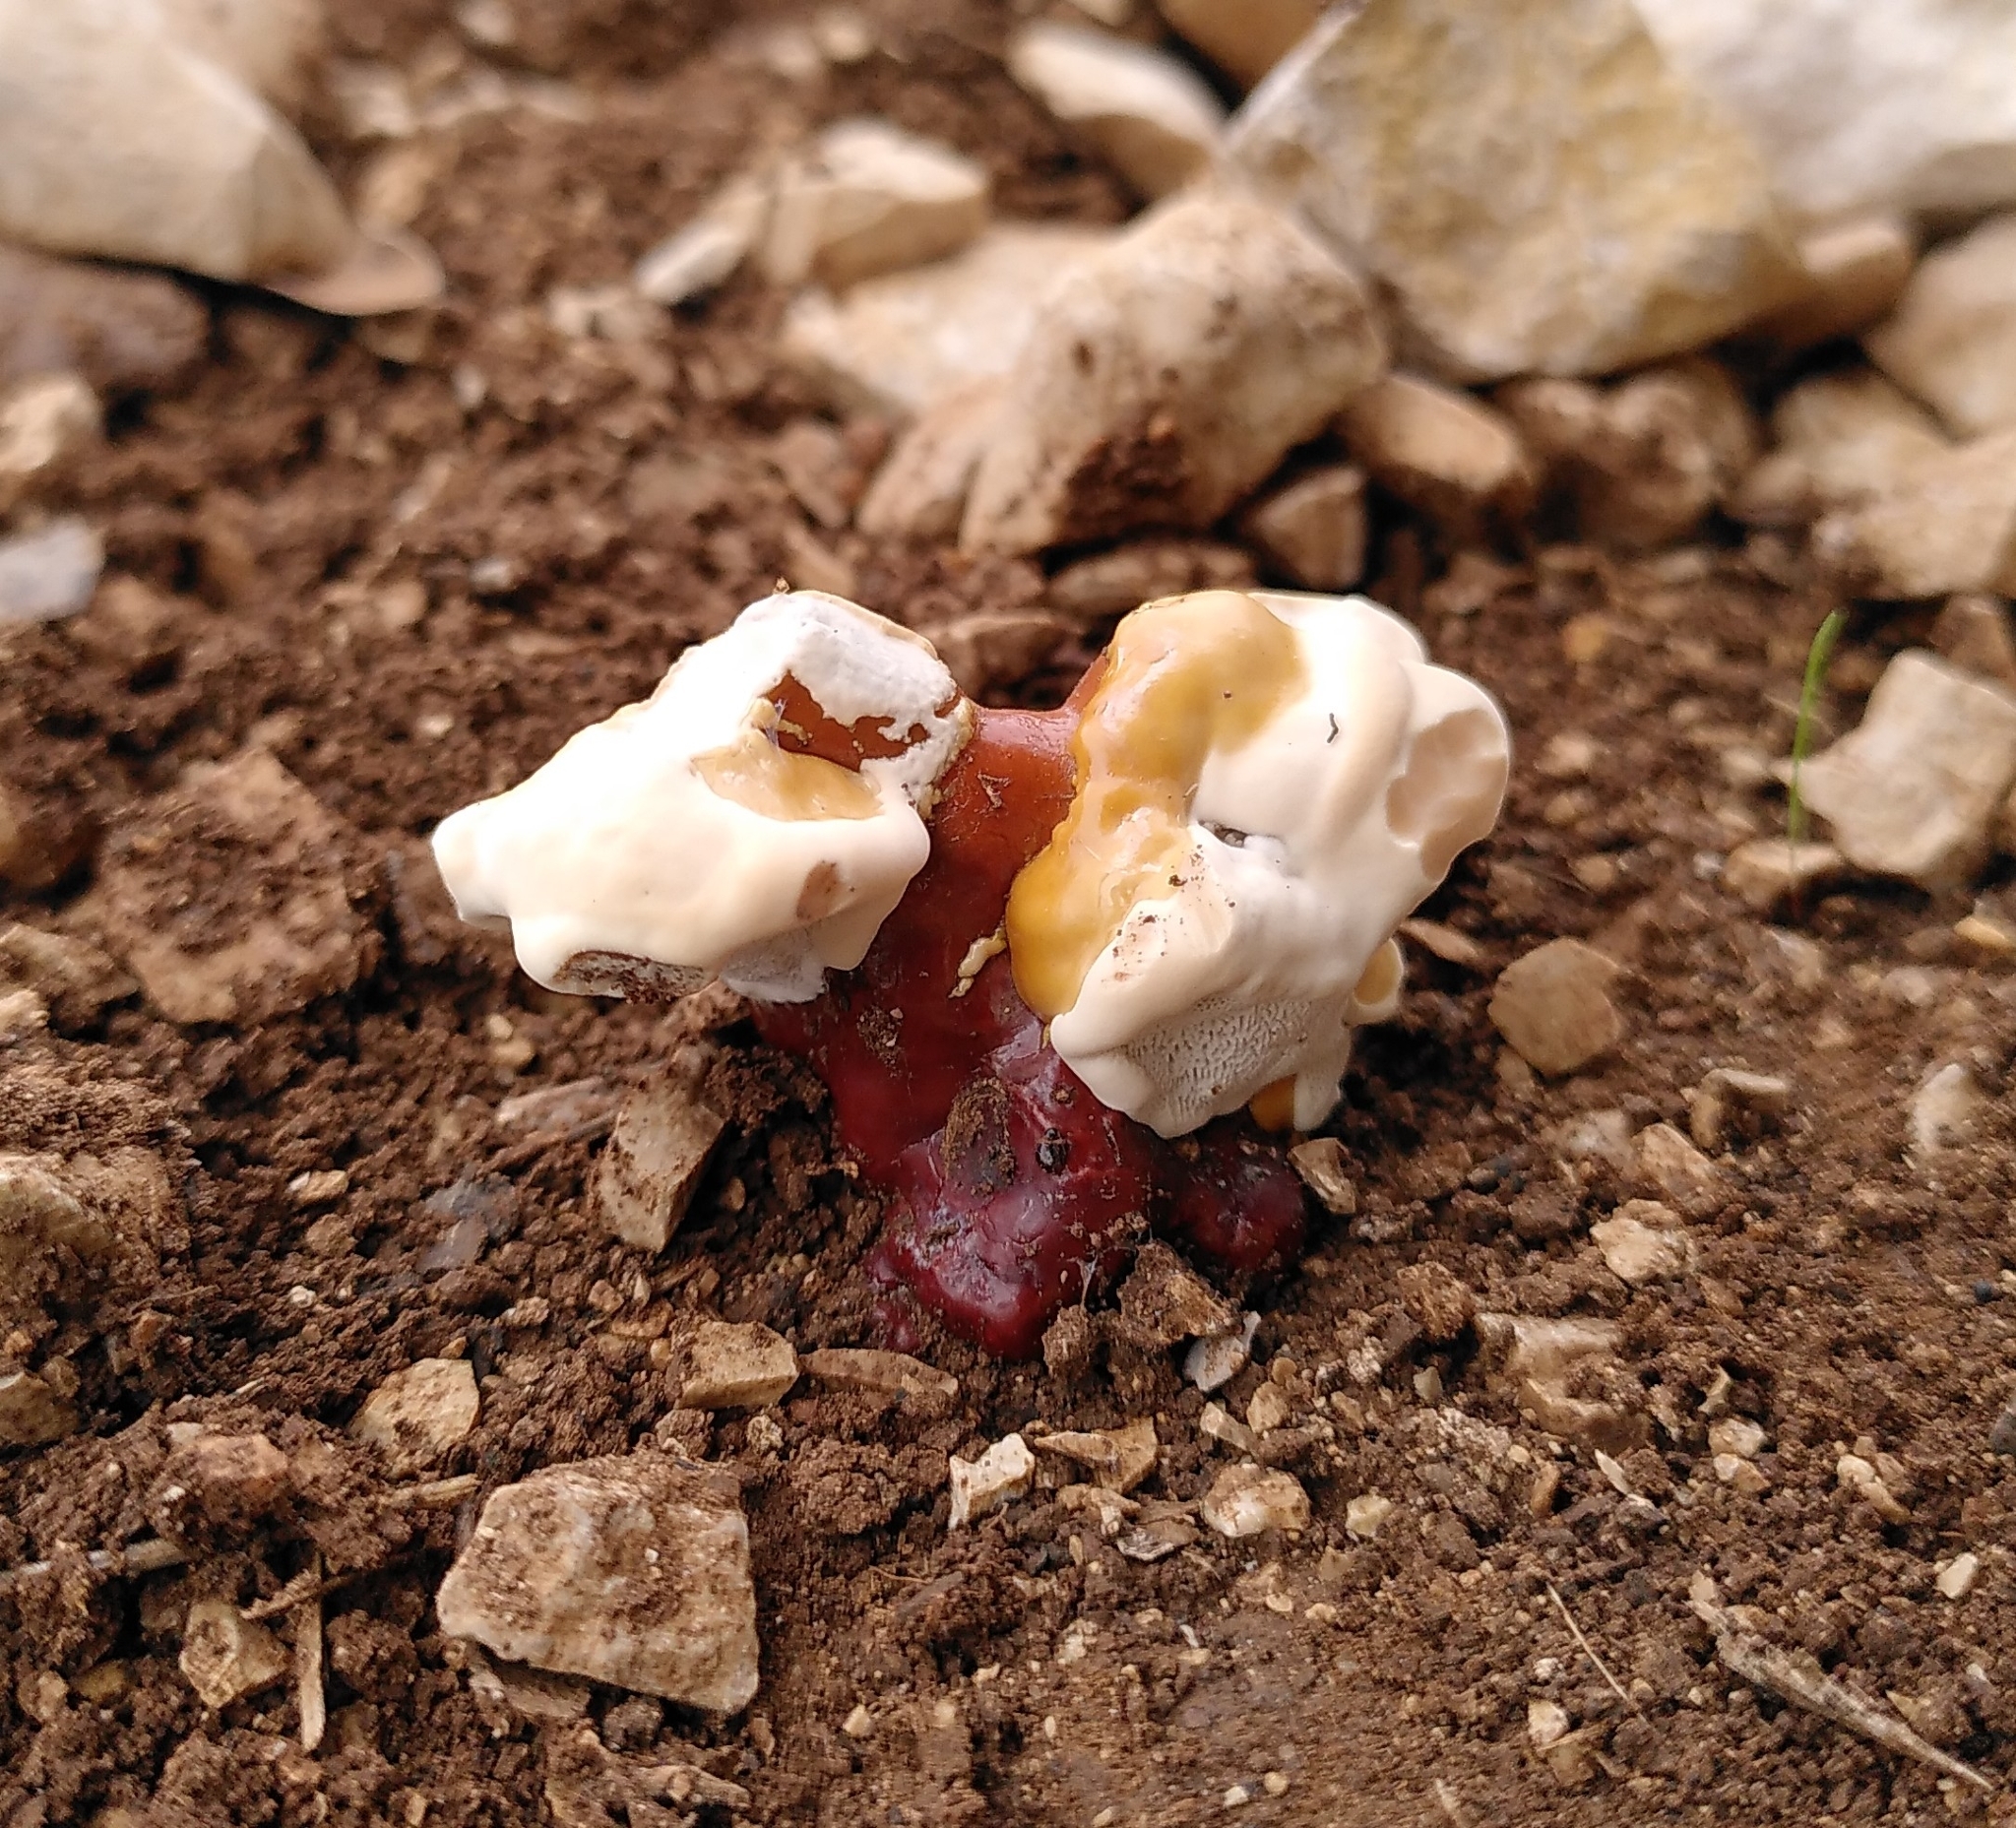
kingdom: Fungi
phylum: Basidiomycota
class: Agaricomycetes
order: Polyporales
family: Polyporaceae
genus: Ganoderma
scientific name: Ganoderma lucidum
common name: Lacquered bracket
